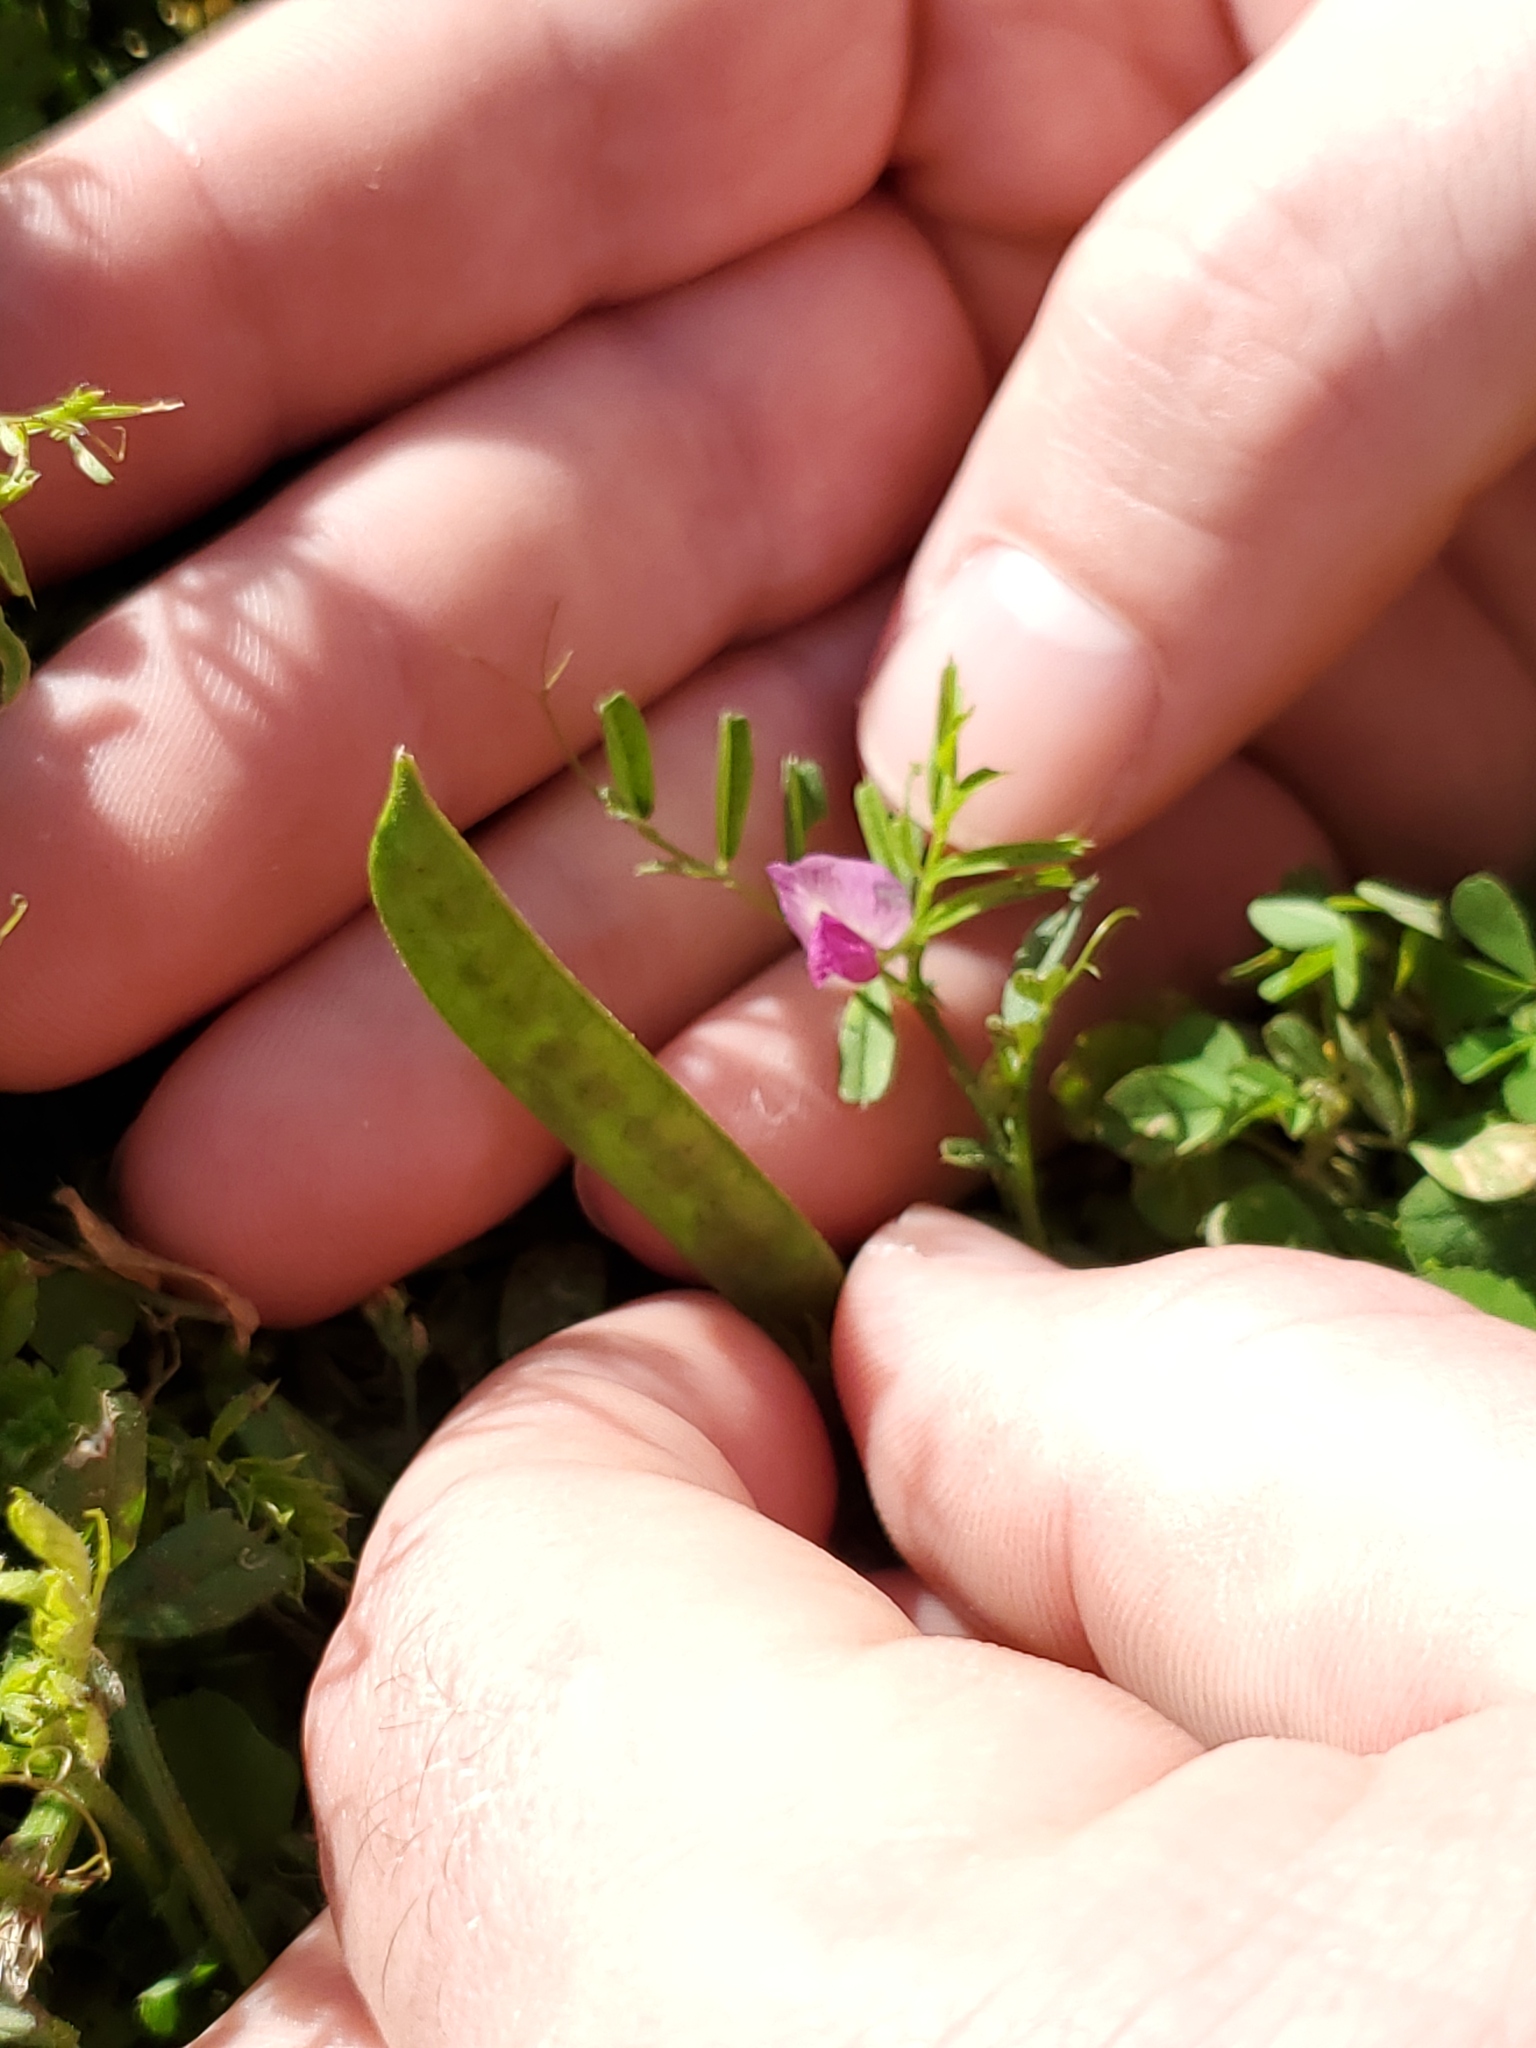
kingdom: Plantae
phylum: Tracheophyta
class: Magnoliopsida
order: Fabales
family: Fabaceae
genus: Vicia
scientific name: Vicia sativa
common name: Garden vetch
